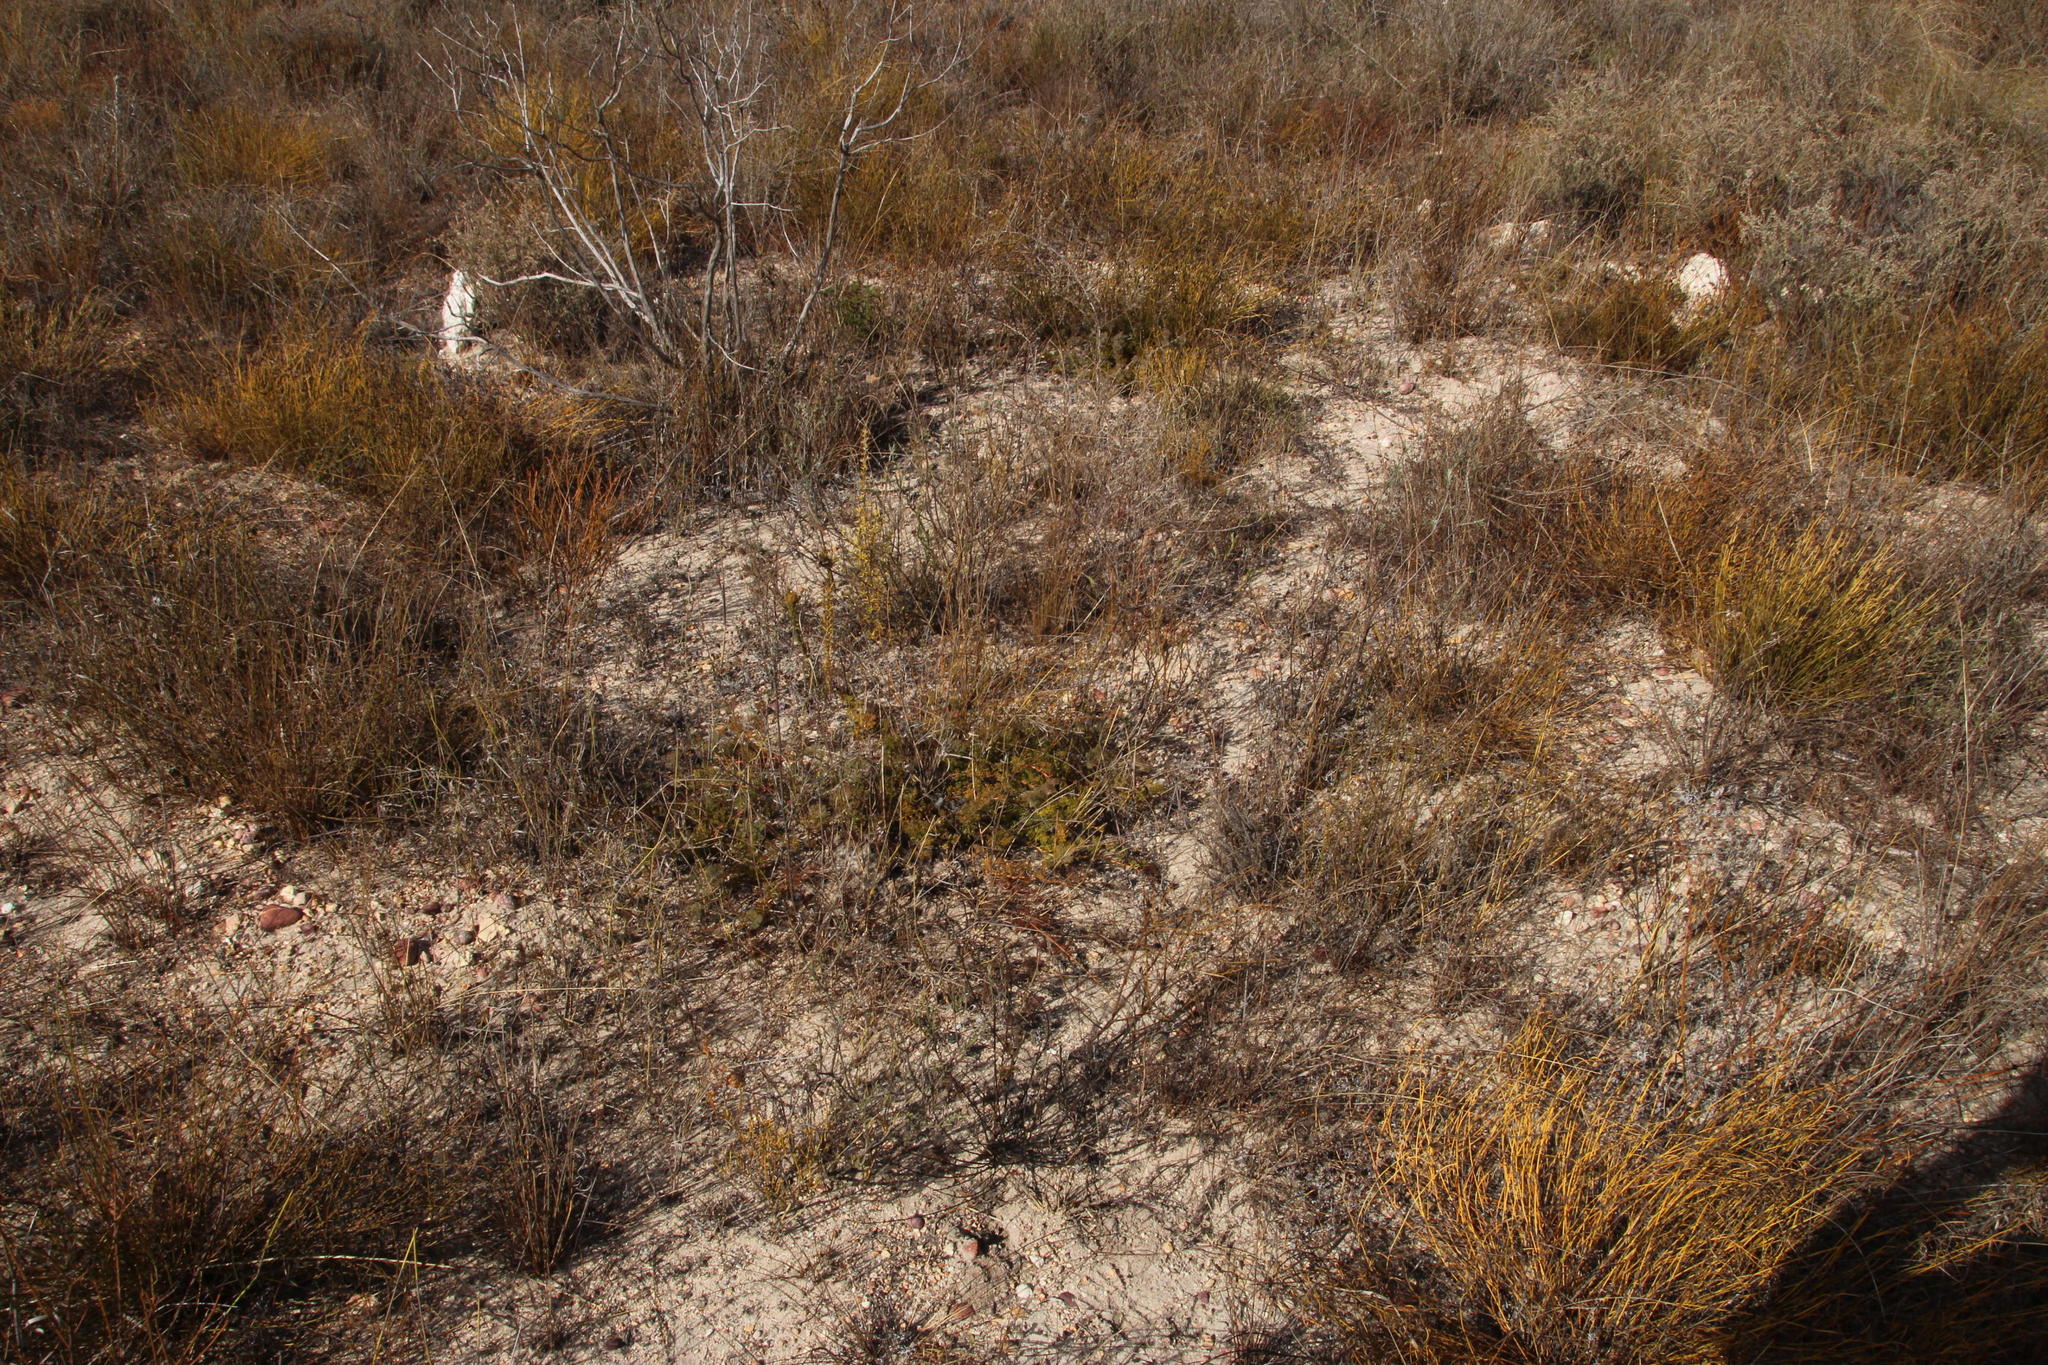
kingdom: Plantae
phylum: Tracheophyta
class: Magnoliopsida
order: Proteales
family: Proteaceae
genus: Serruria
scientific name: Serruria incrassata
